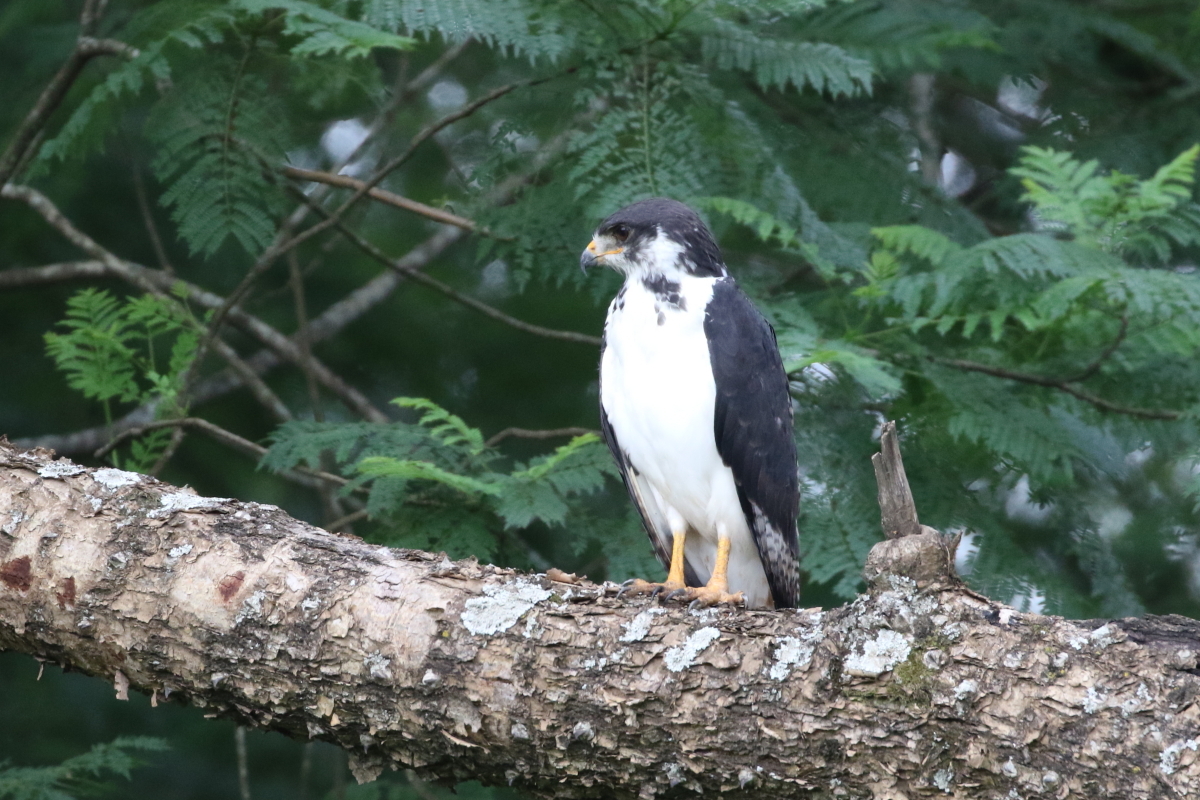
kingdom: Animalia
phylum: Chordata
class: Aves
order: Accipitriformes
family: Accipitridae
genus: Buteo
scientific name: Buteo augur
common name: Augur buzzard
